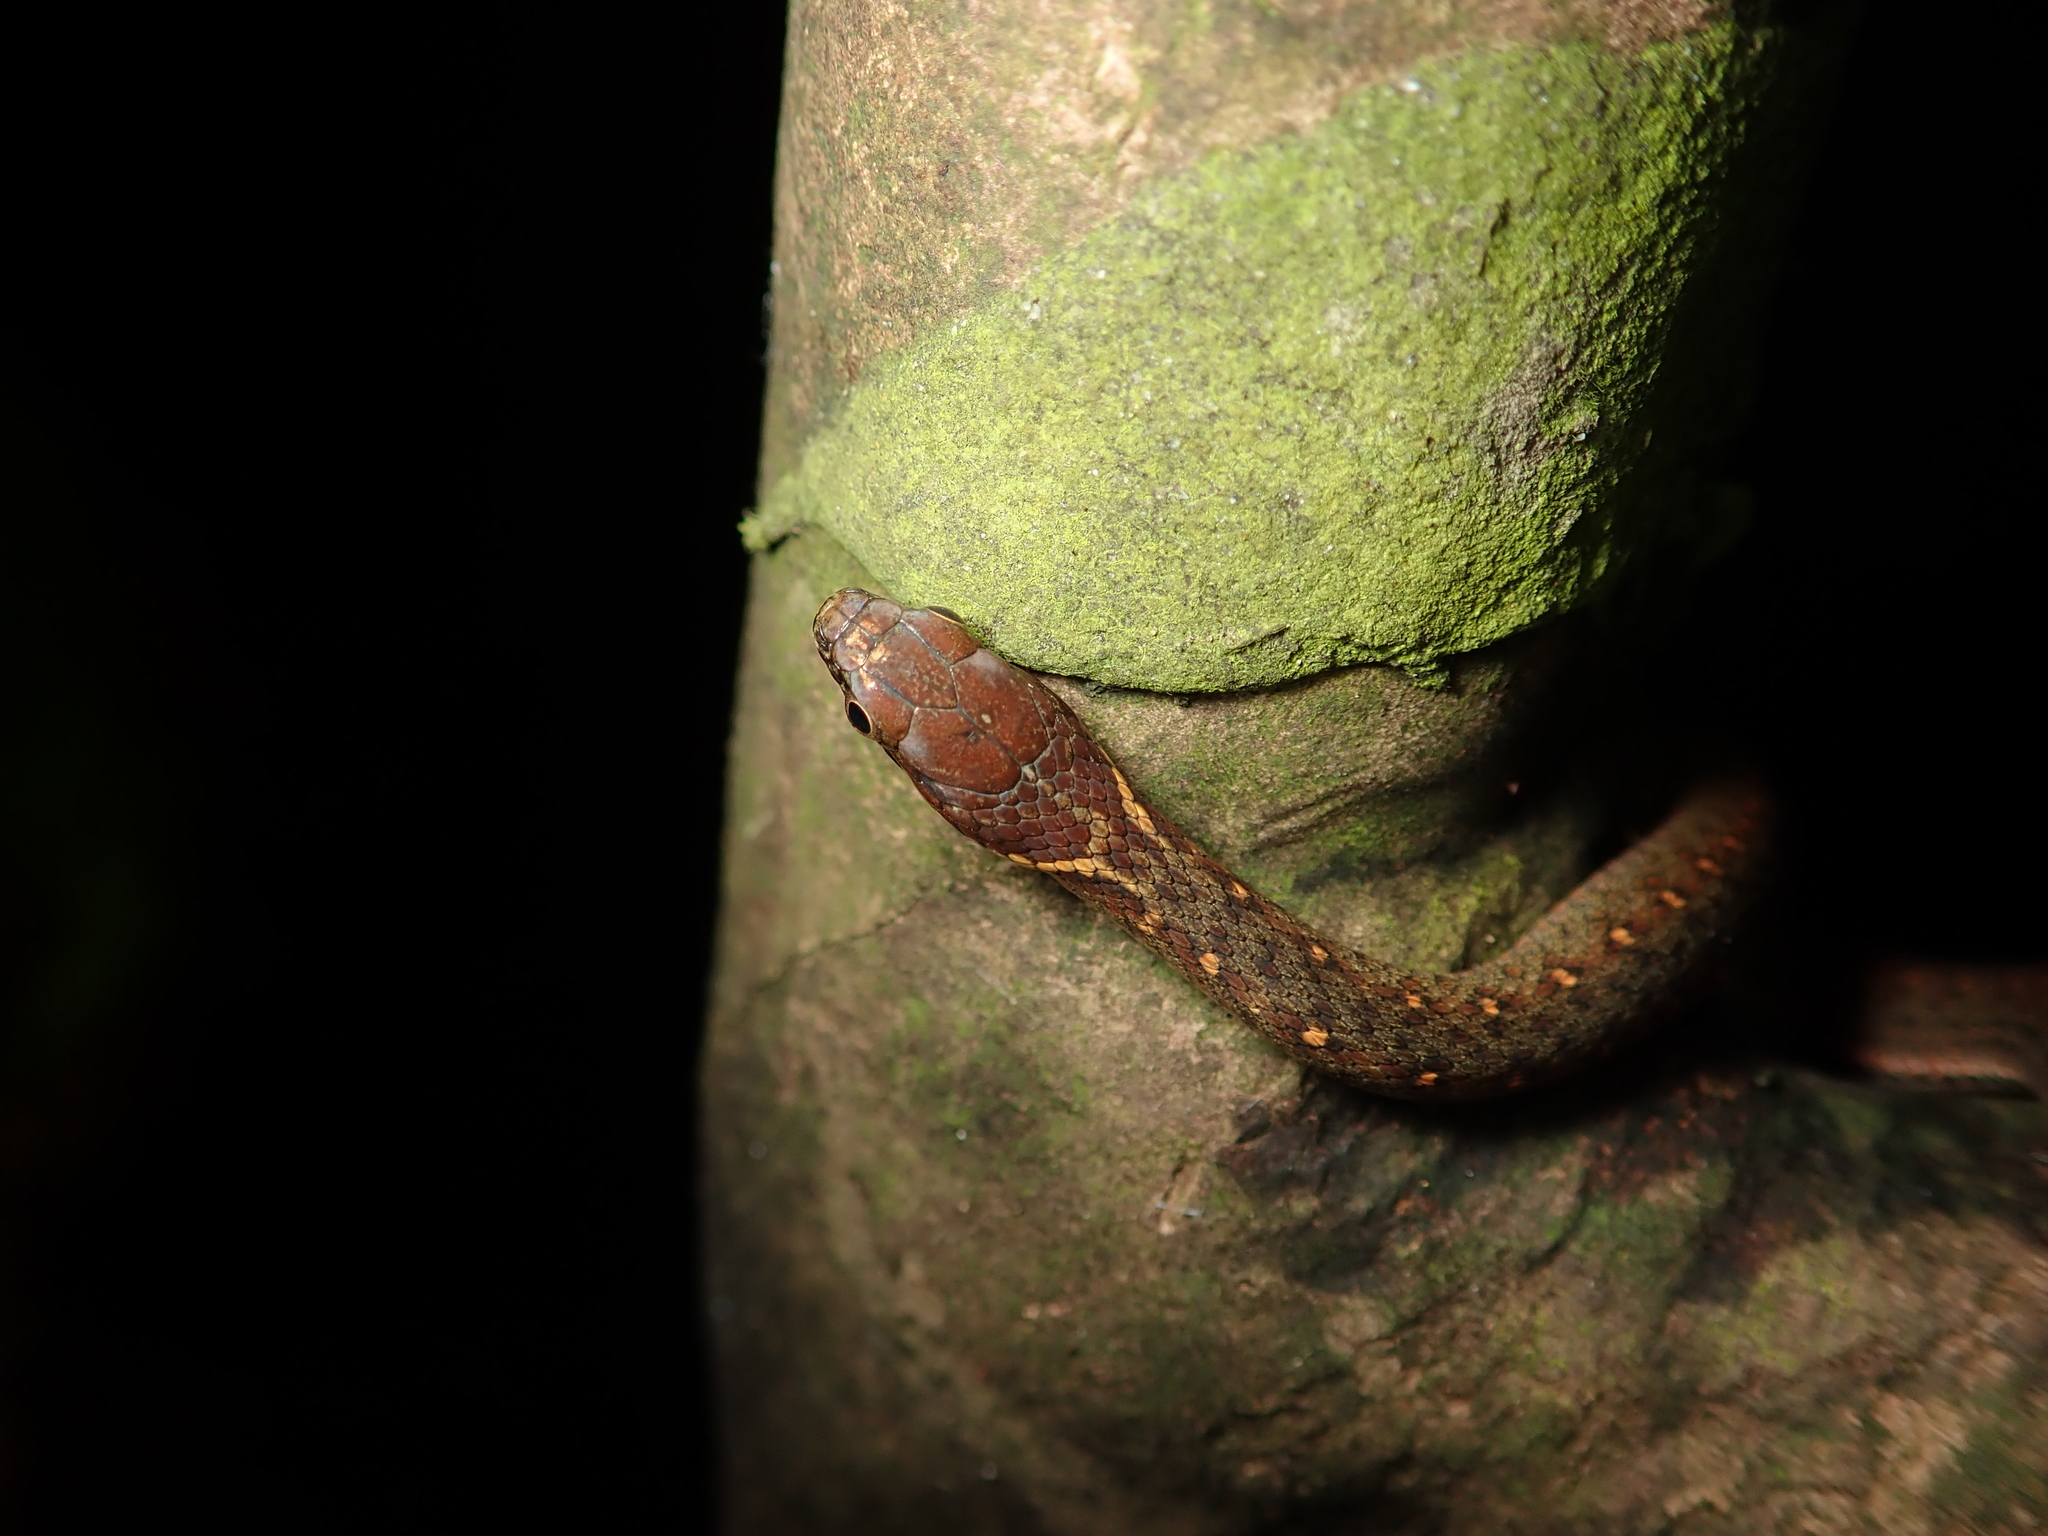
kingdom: Animalia
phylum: Chordata
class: Squamata
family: Colubridae
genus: Hebius
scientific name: Hebius sauteri
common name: Sauter's keelback
